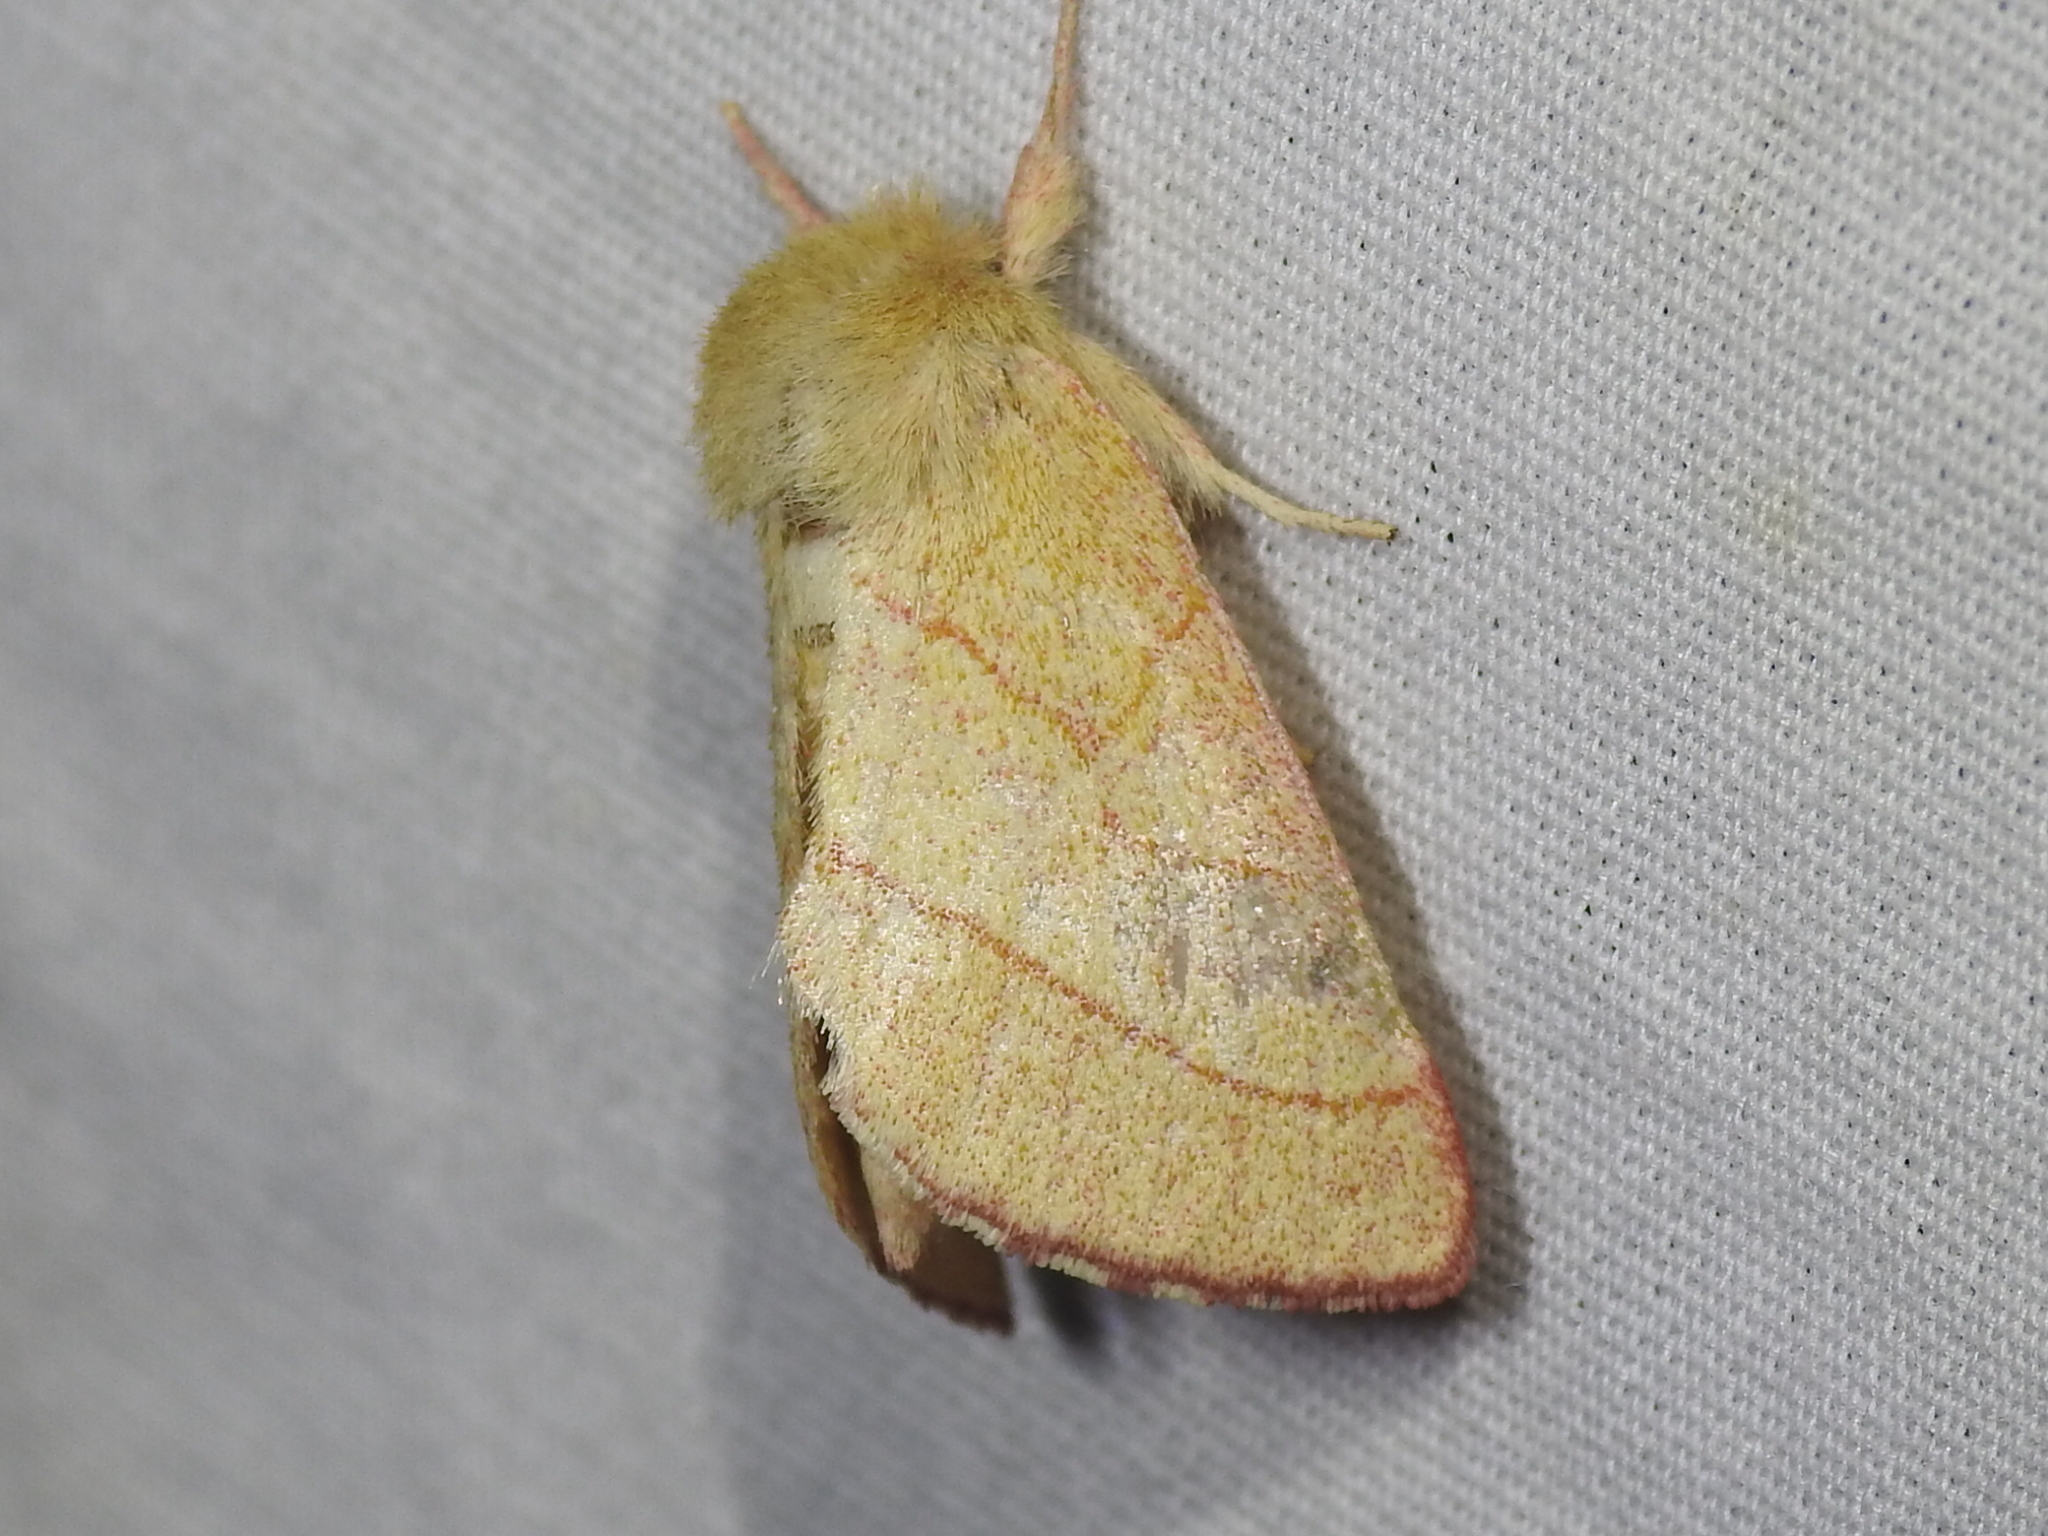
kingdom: Animalia
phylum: Arthropoda
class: Insecta
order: Lepidoptera
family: Notodontidae
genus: Hyparpax
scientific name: Hyparpax aurostriata
